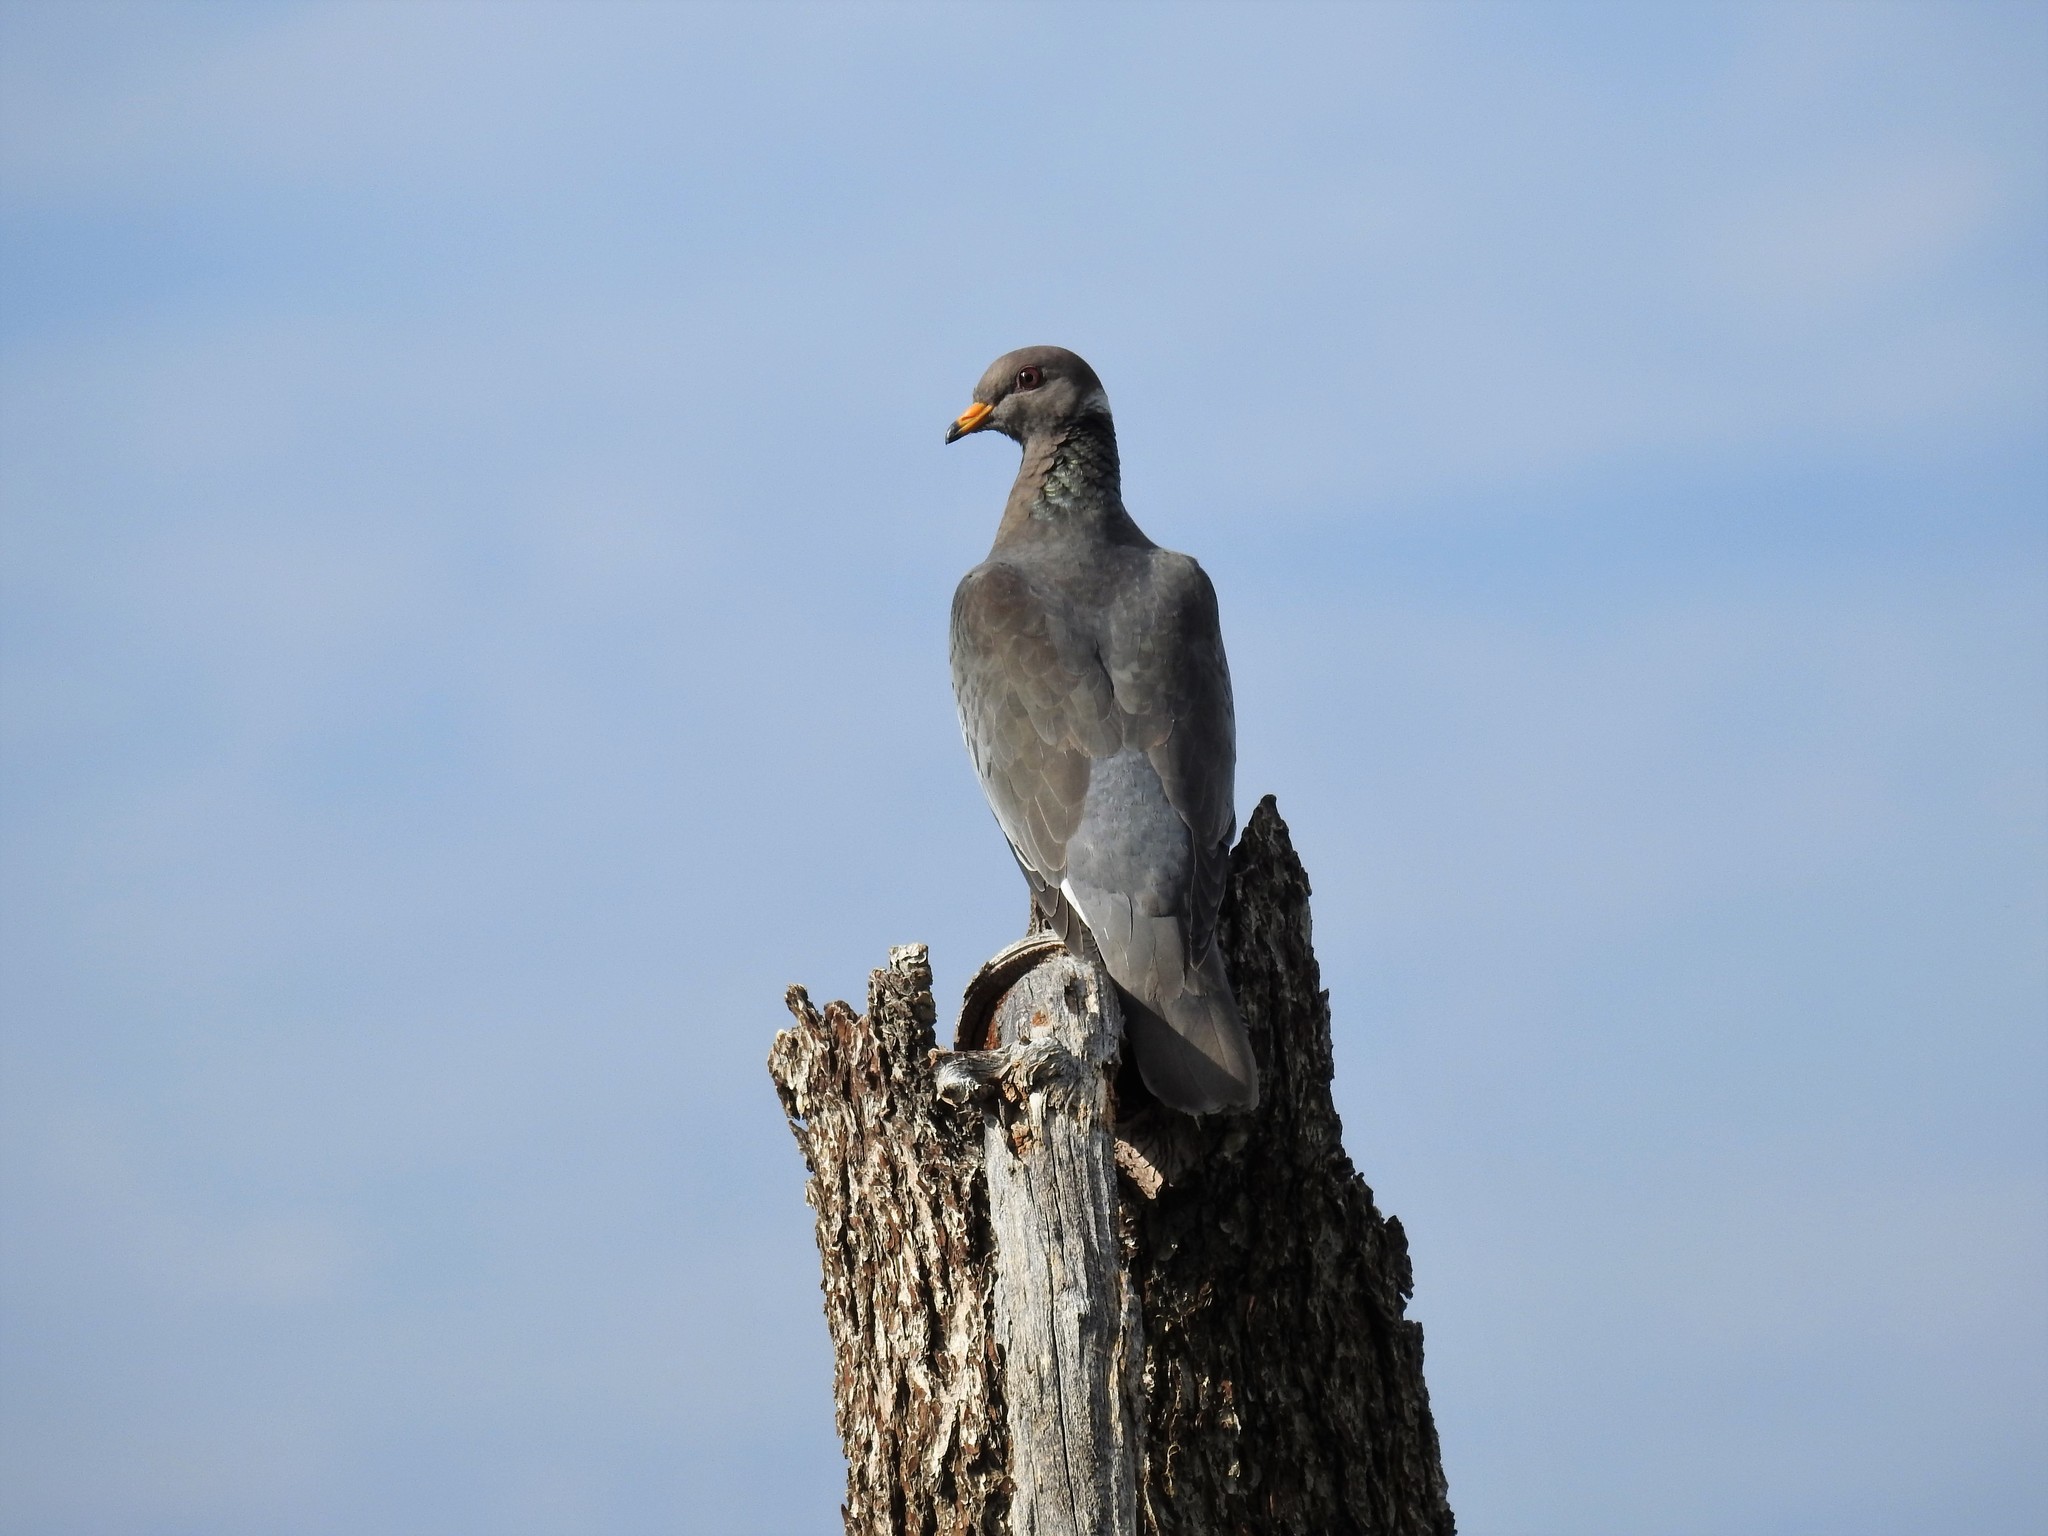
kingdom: Animalia
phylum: Chordata
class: Aves
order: Columbiformes
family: Columbidae
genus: Patagioenas
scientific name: Patagioenas fasciata
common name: Band-tailed pigeon
